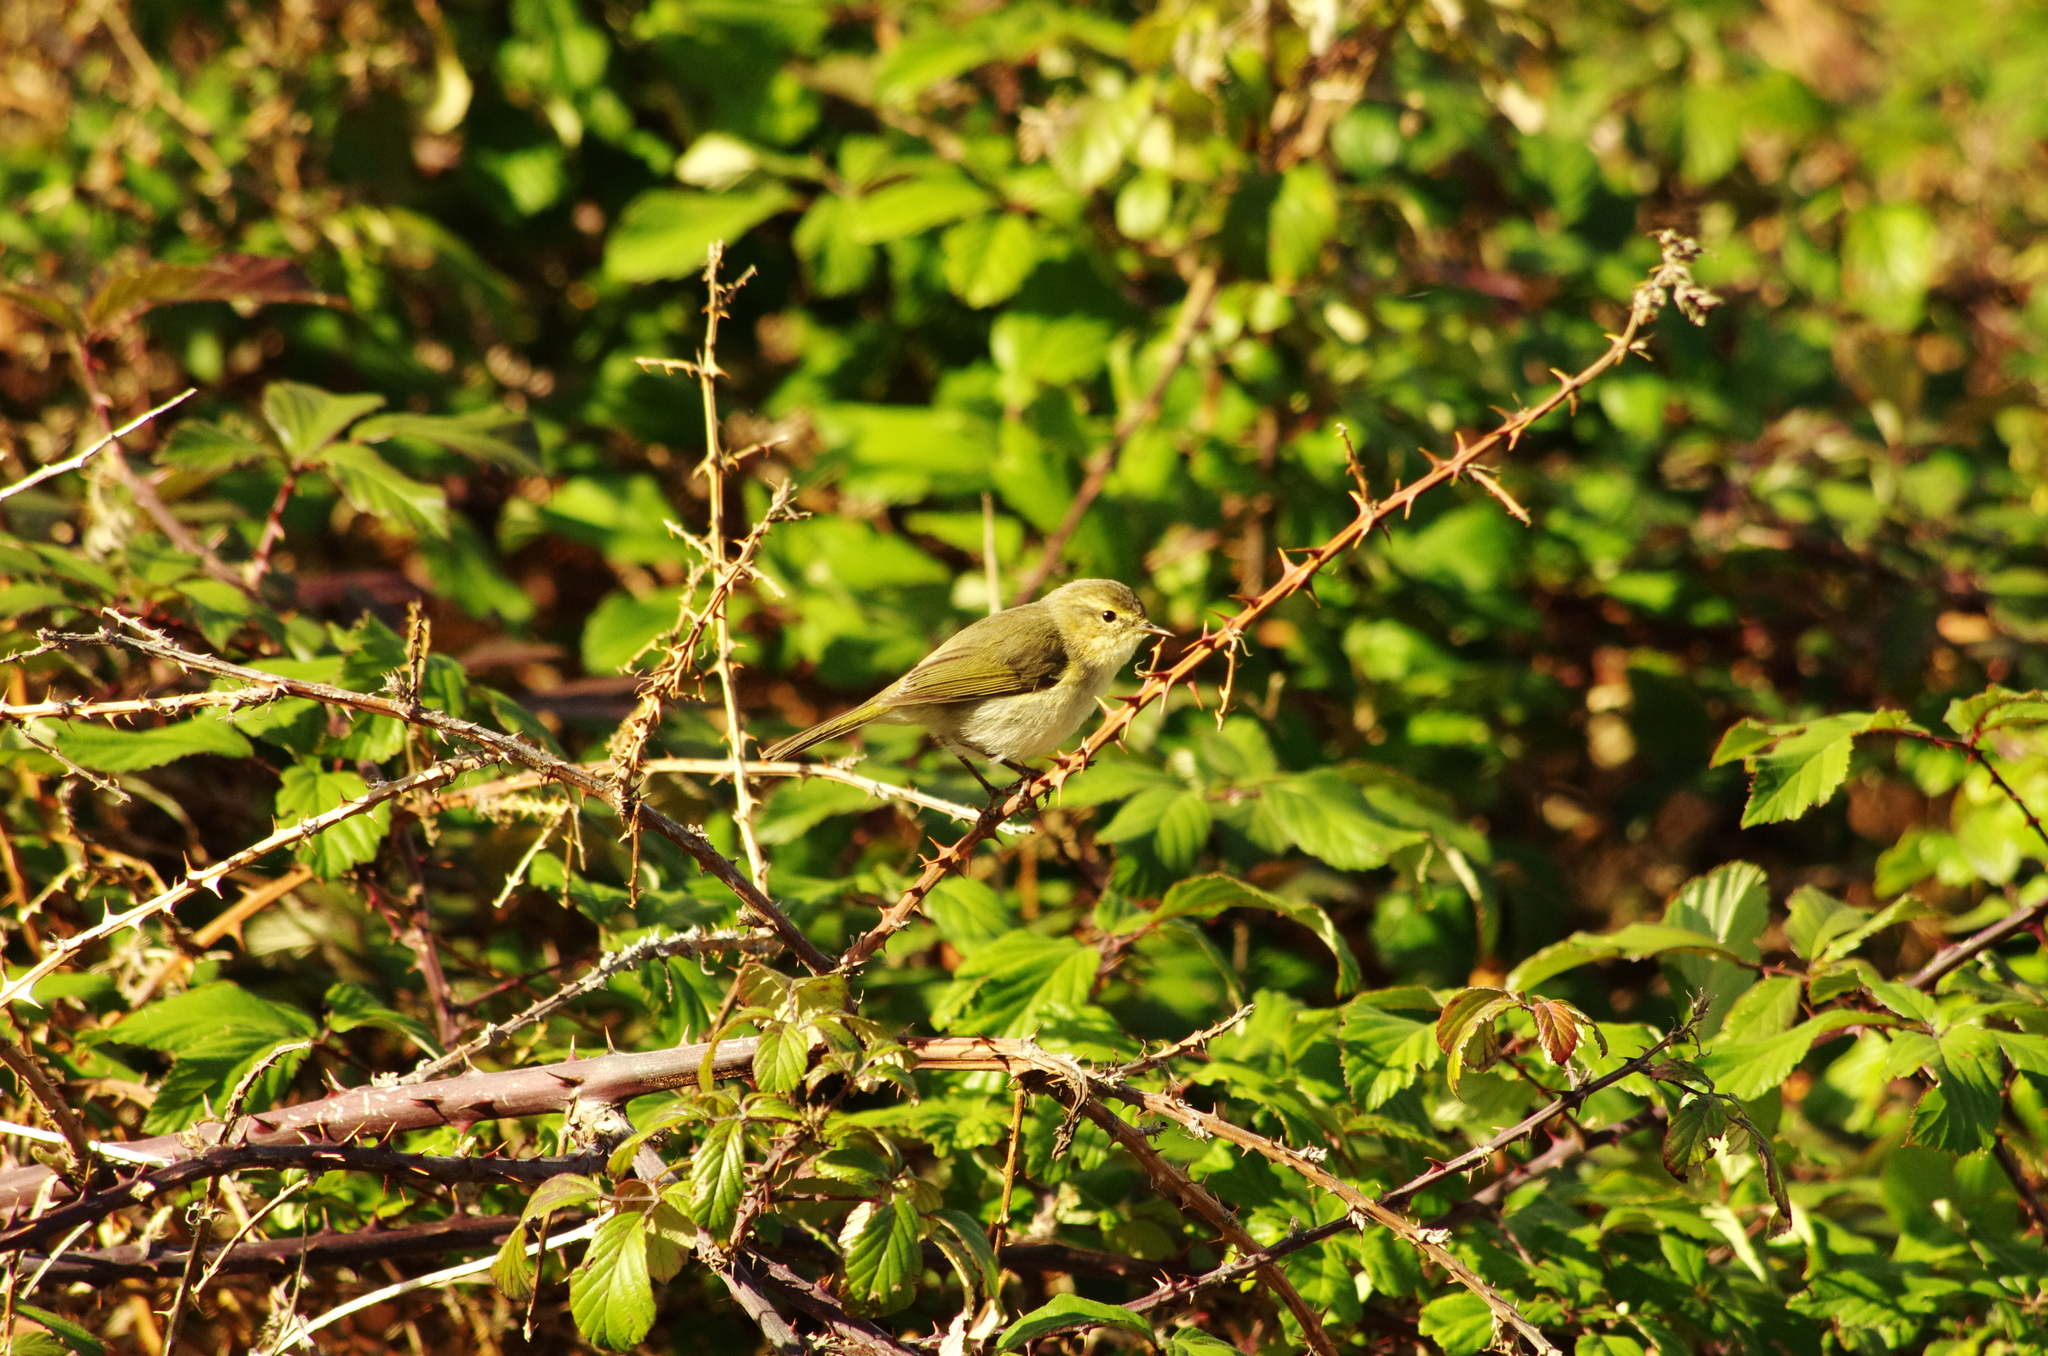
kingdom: Animalia
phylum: Chordata
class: Aves
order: Passeriformes
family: Phylloscopidae
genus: Phylloscopus
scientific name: Phylloscopus canariensis
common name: Canary islands chiffchaff
